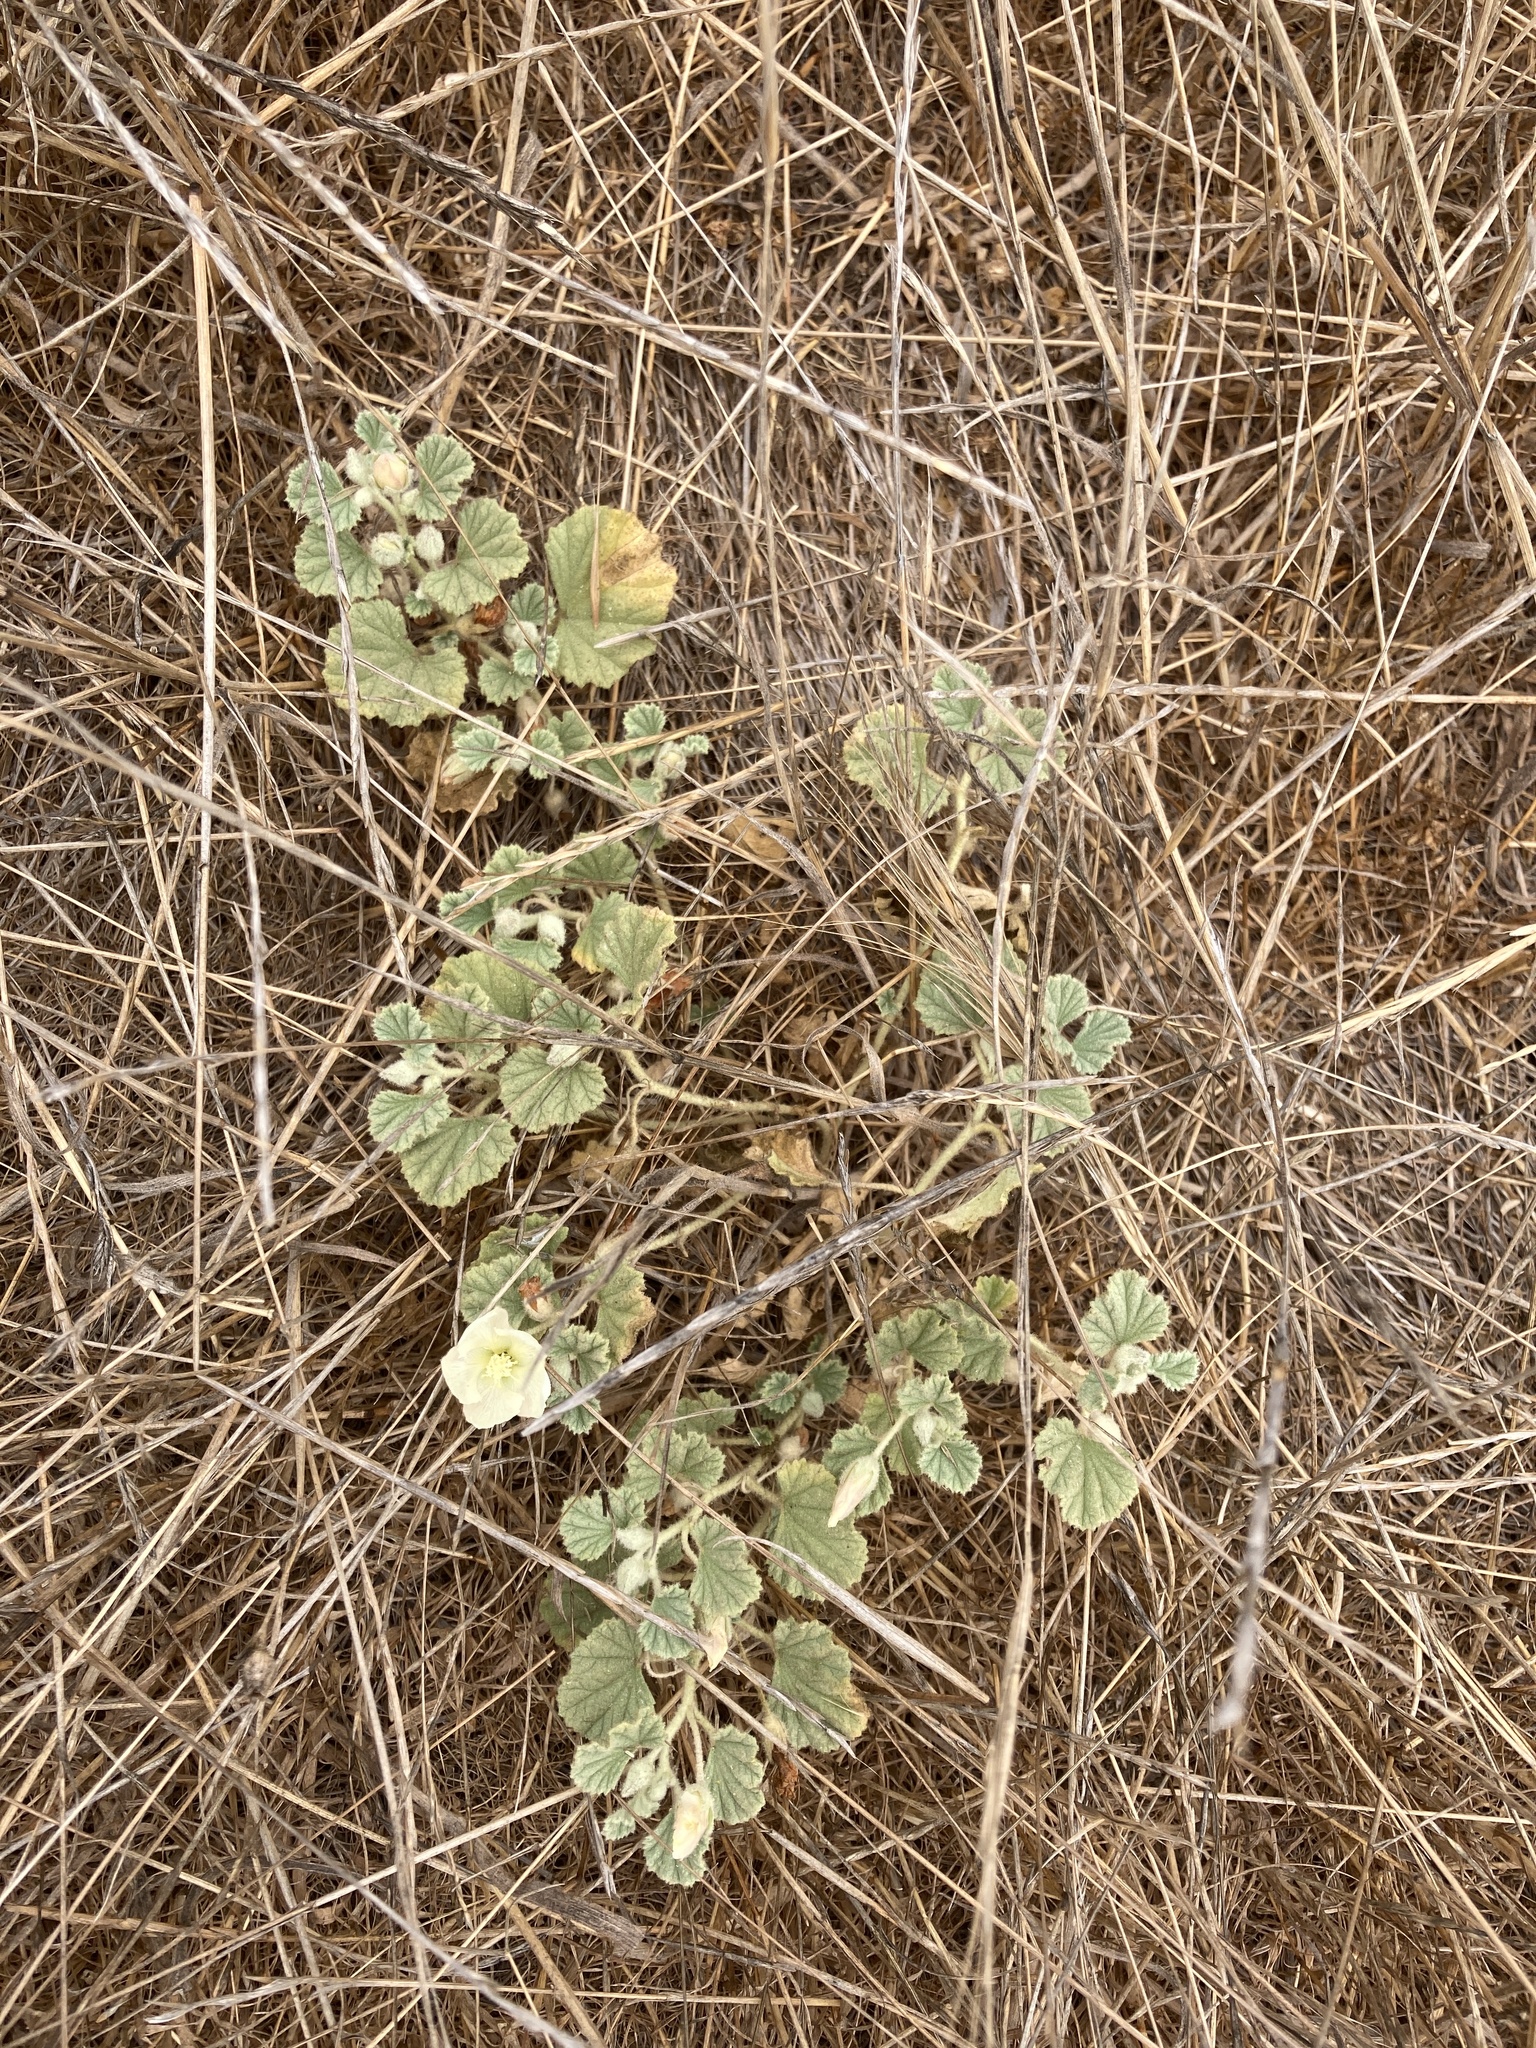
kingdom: Plantae
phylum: Tracheophyta
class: Magnoliopsida
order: Malvales
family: Malvaceae
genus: Malvella
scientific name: Malvella leprosa
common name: Alkali-mallow
